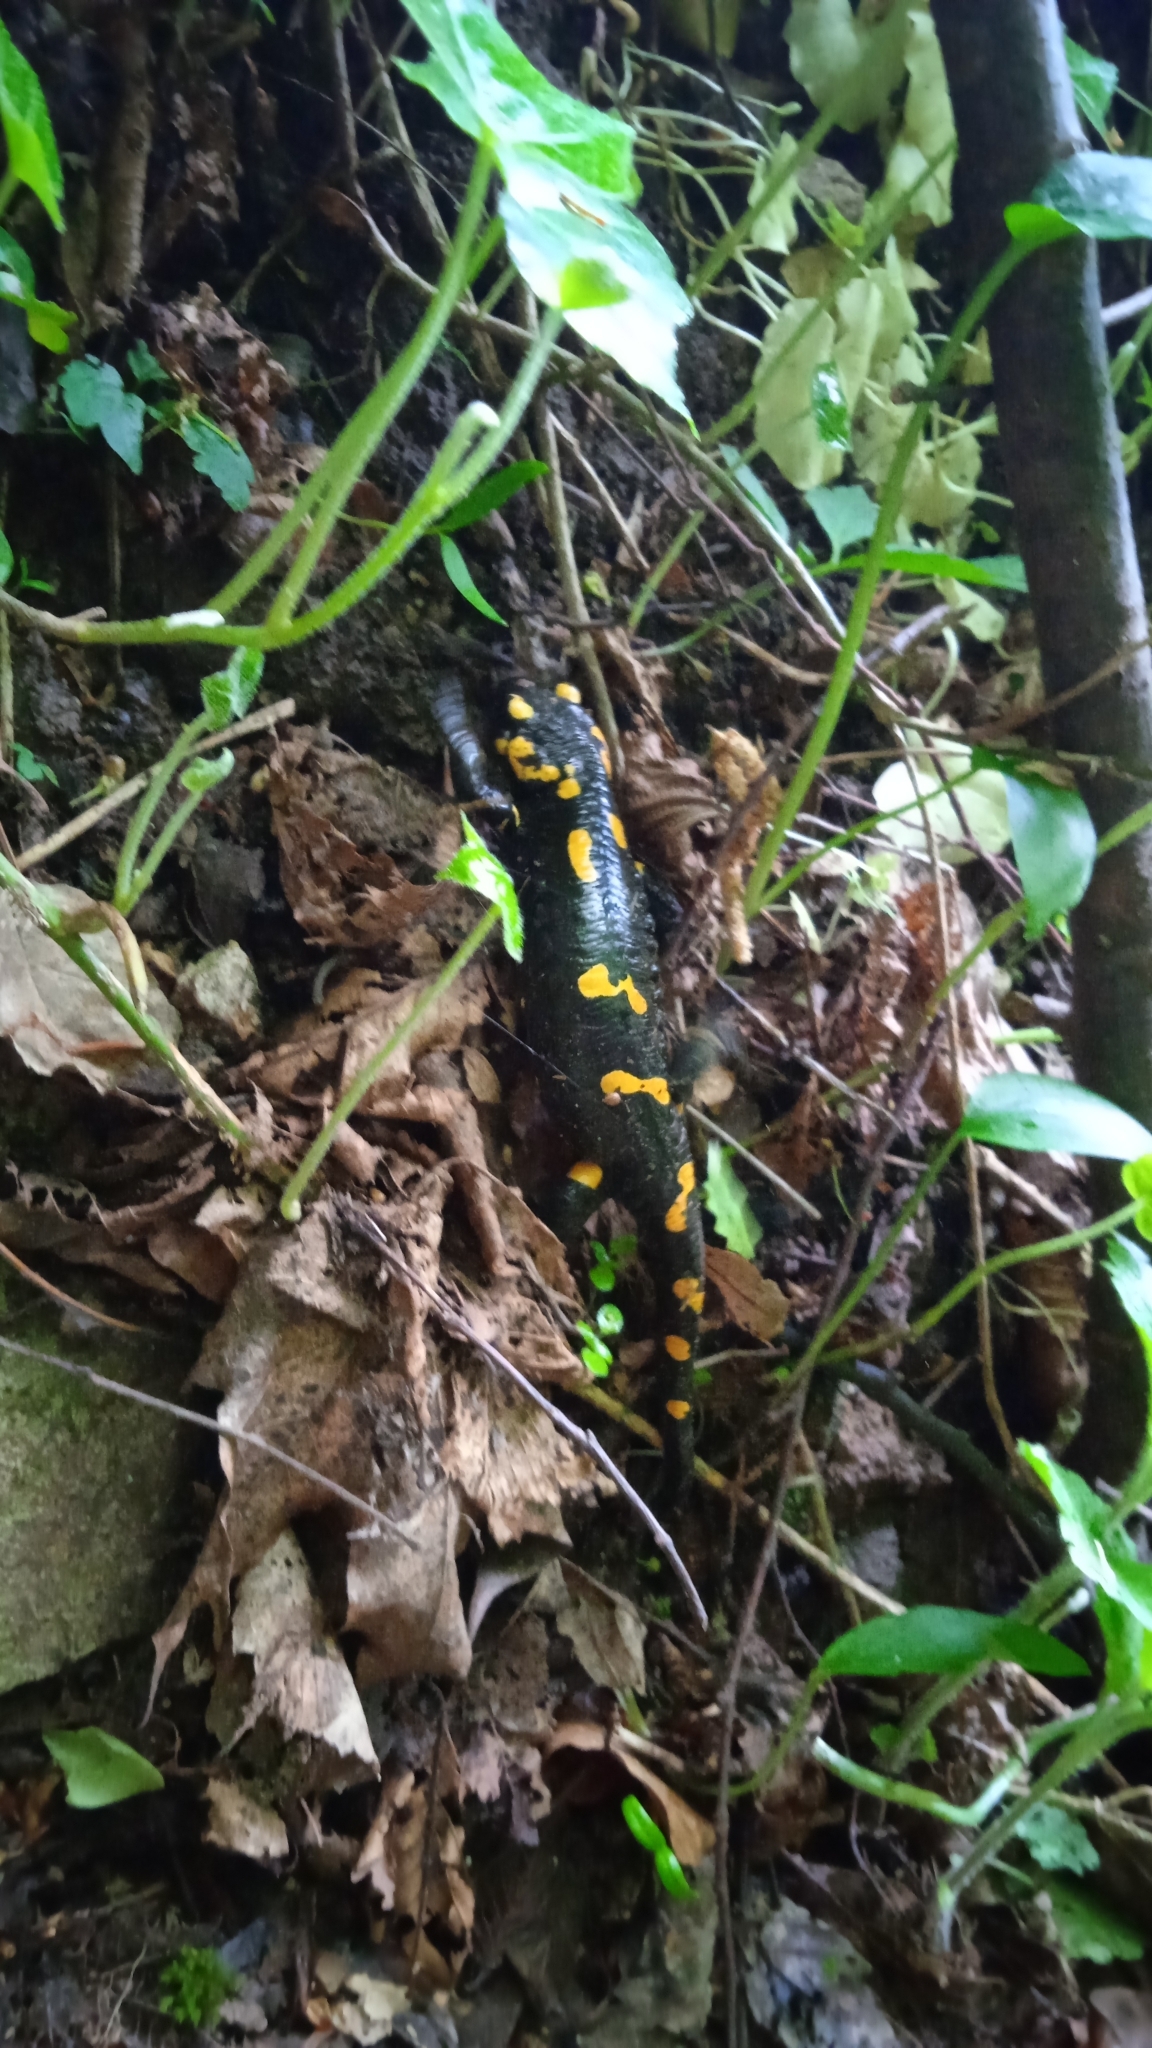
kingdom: Animalia
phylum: Chordata
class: Amphibia
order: Caudata
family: Salamandridae
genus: Salamandra
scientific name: Salamandra salamandra
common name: Fire salamander
